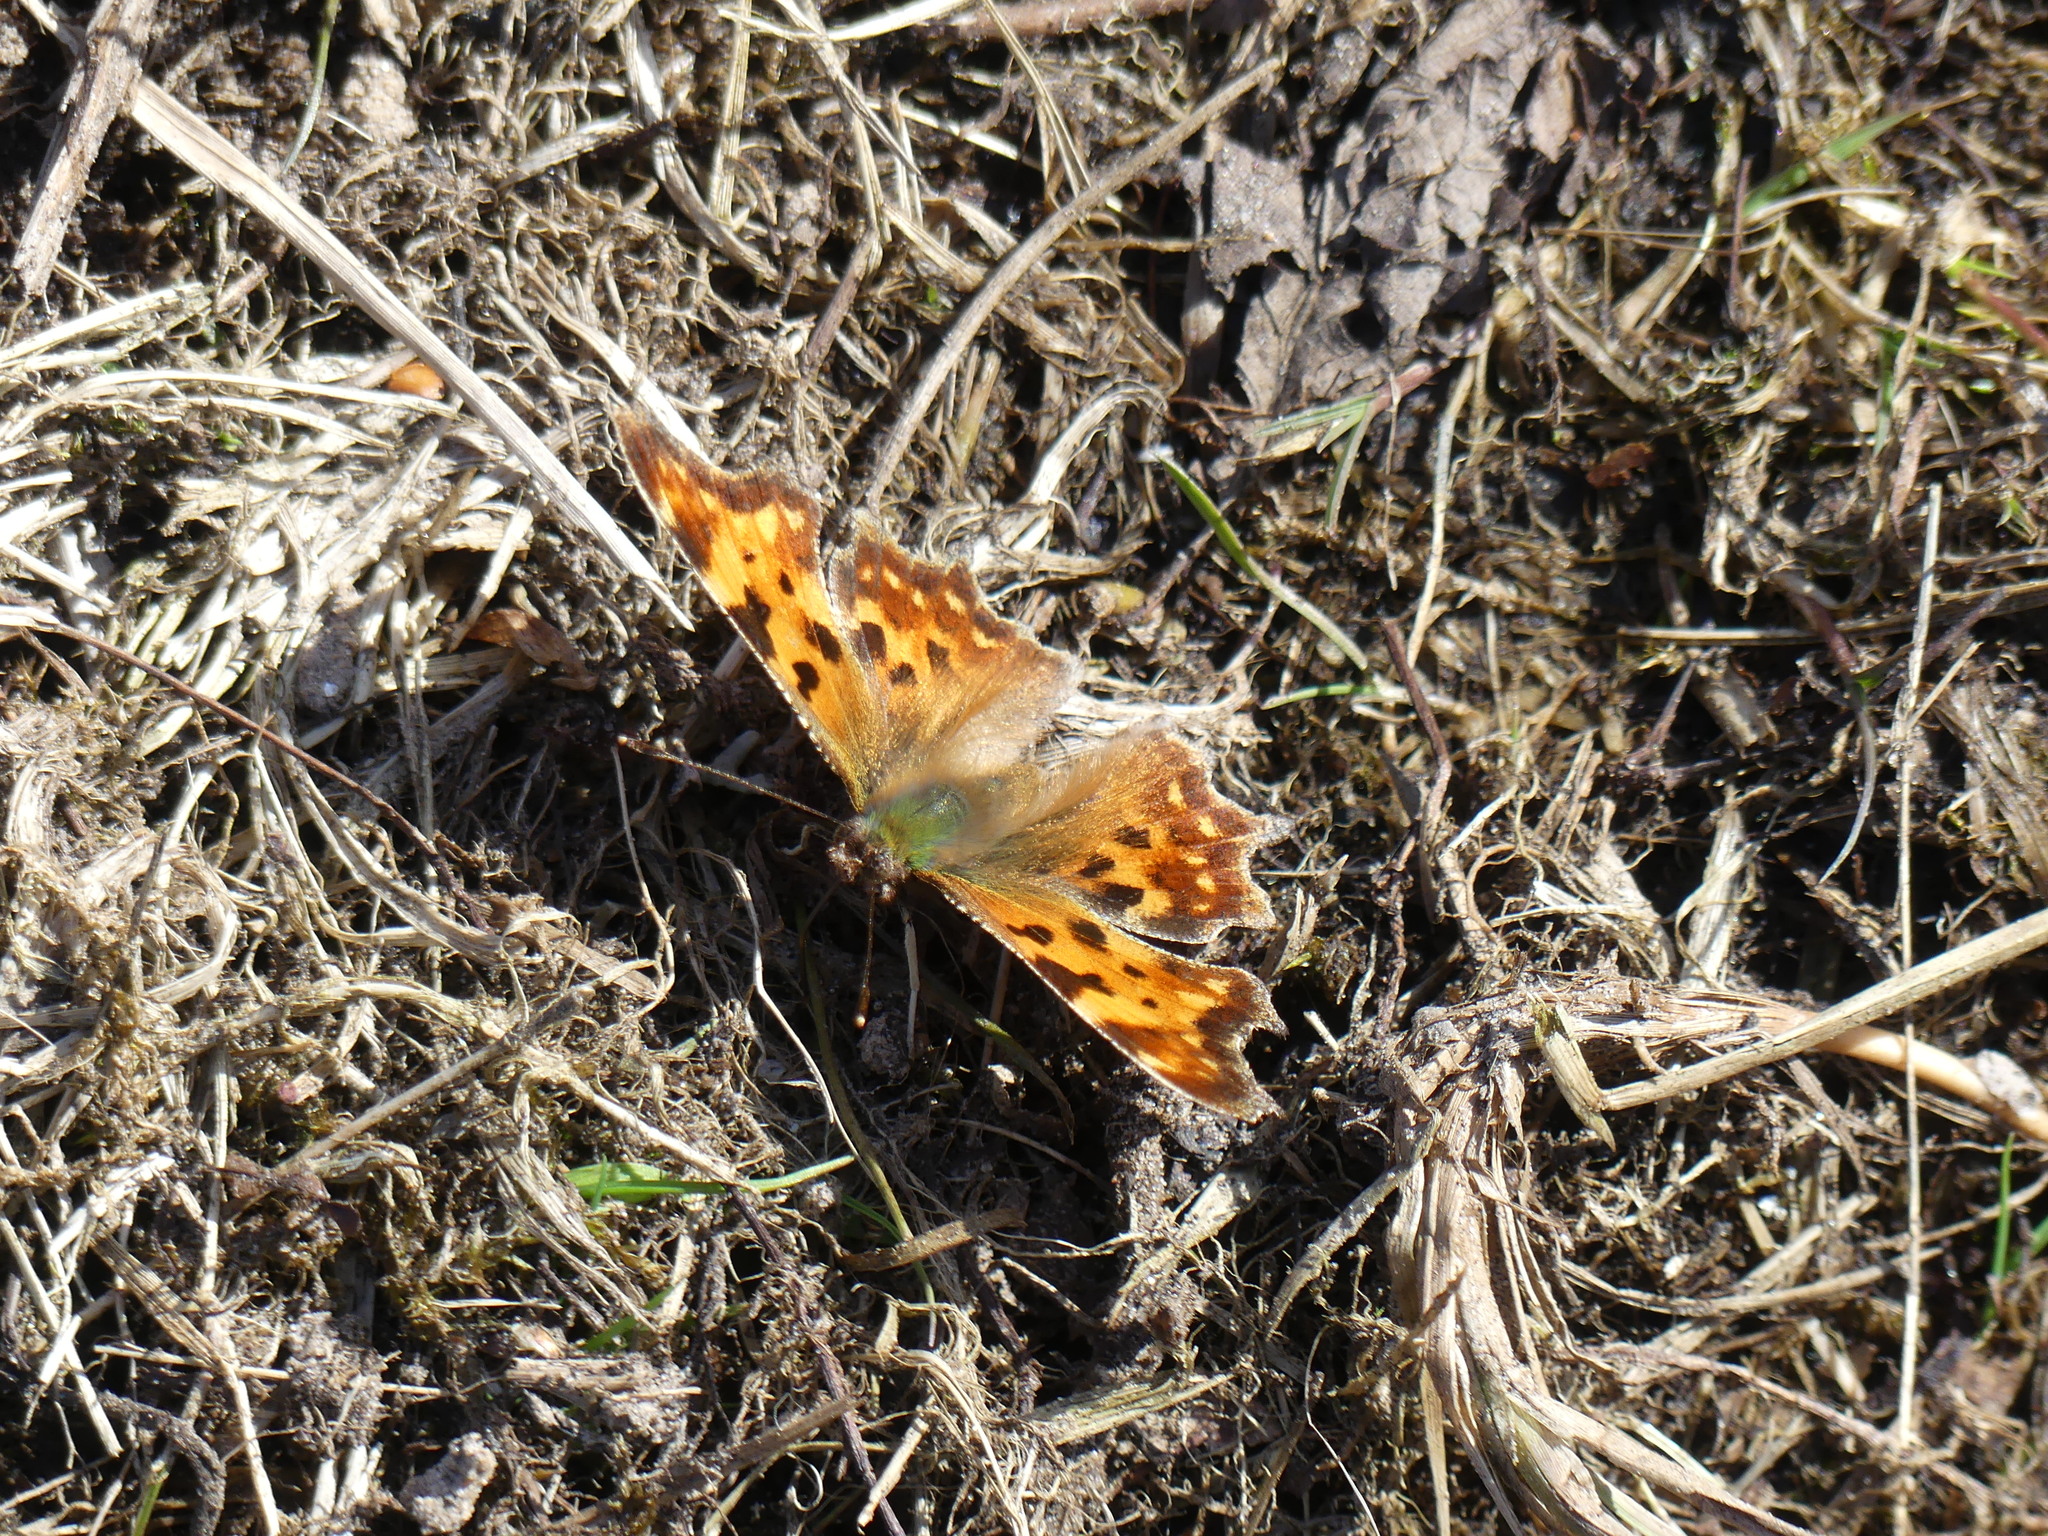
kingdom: Animalia
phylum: Arthropoda
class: Insecta
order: Lepidoptera
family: Nymphalidae
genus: Polygonia
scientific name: Polygonia c-album
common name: Comma
